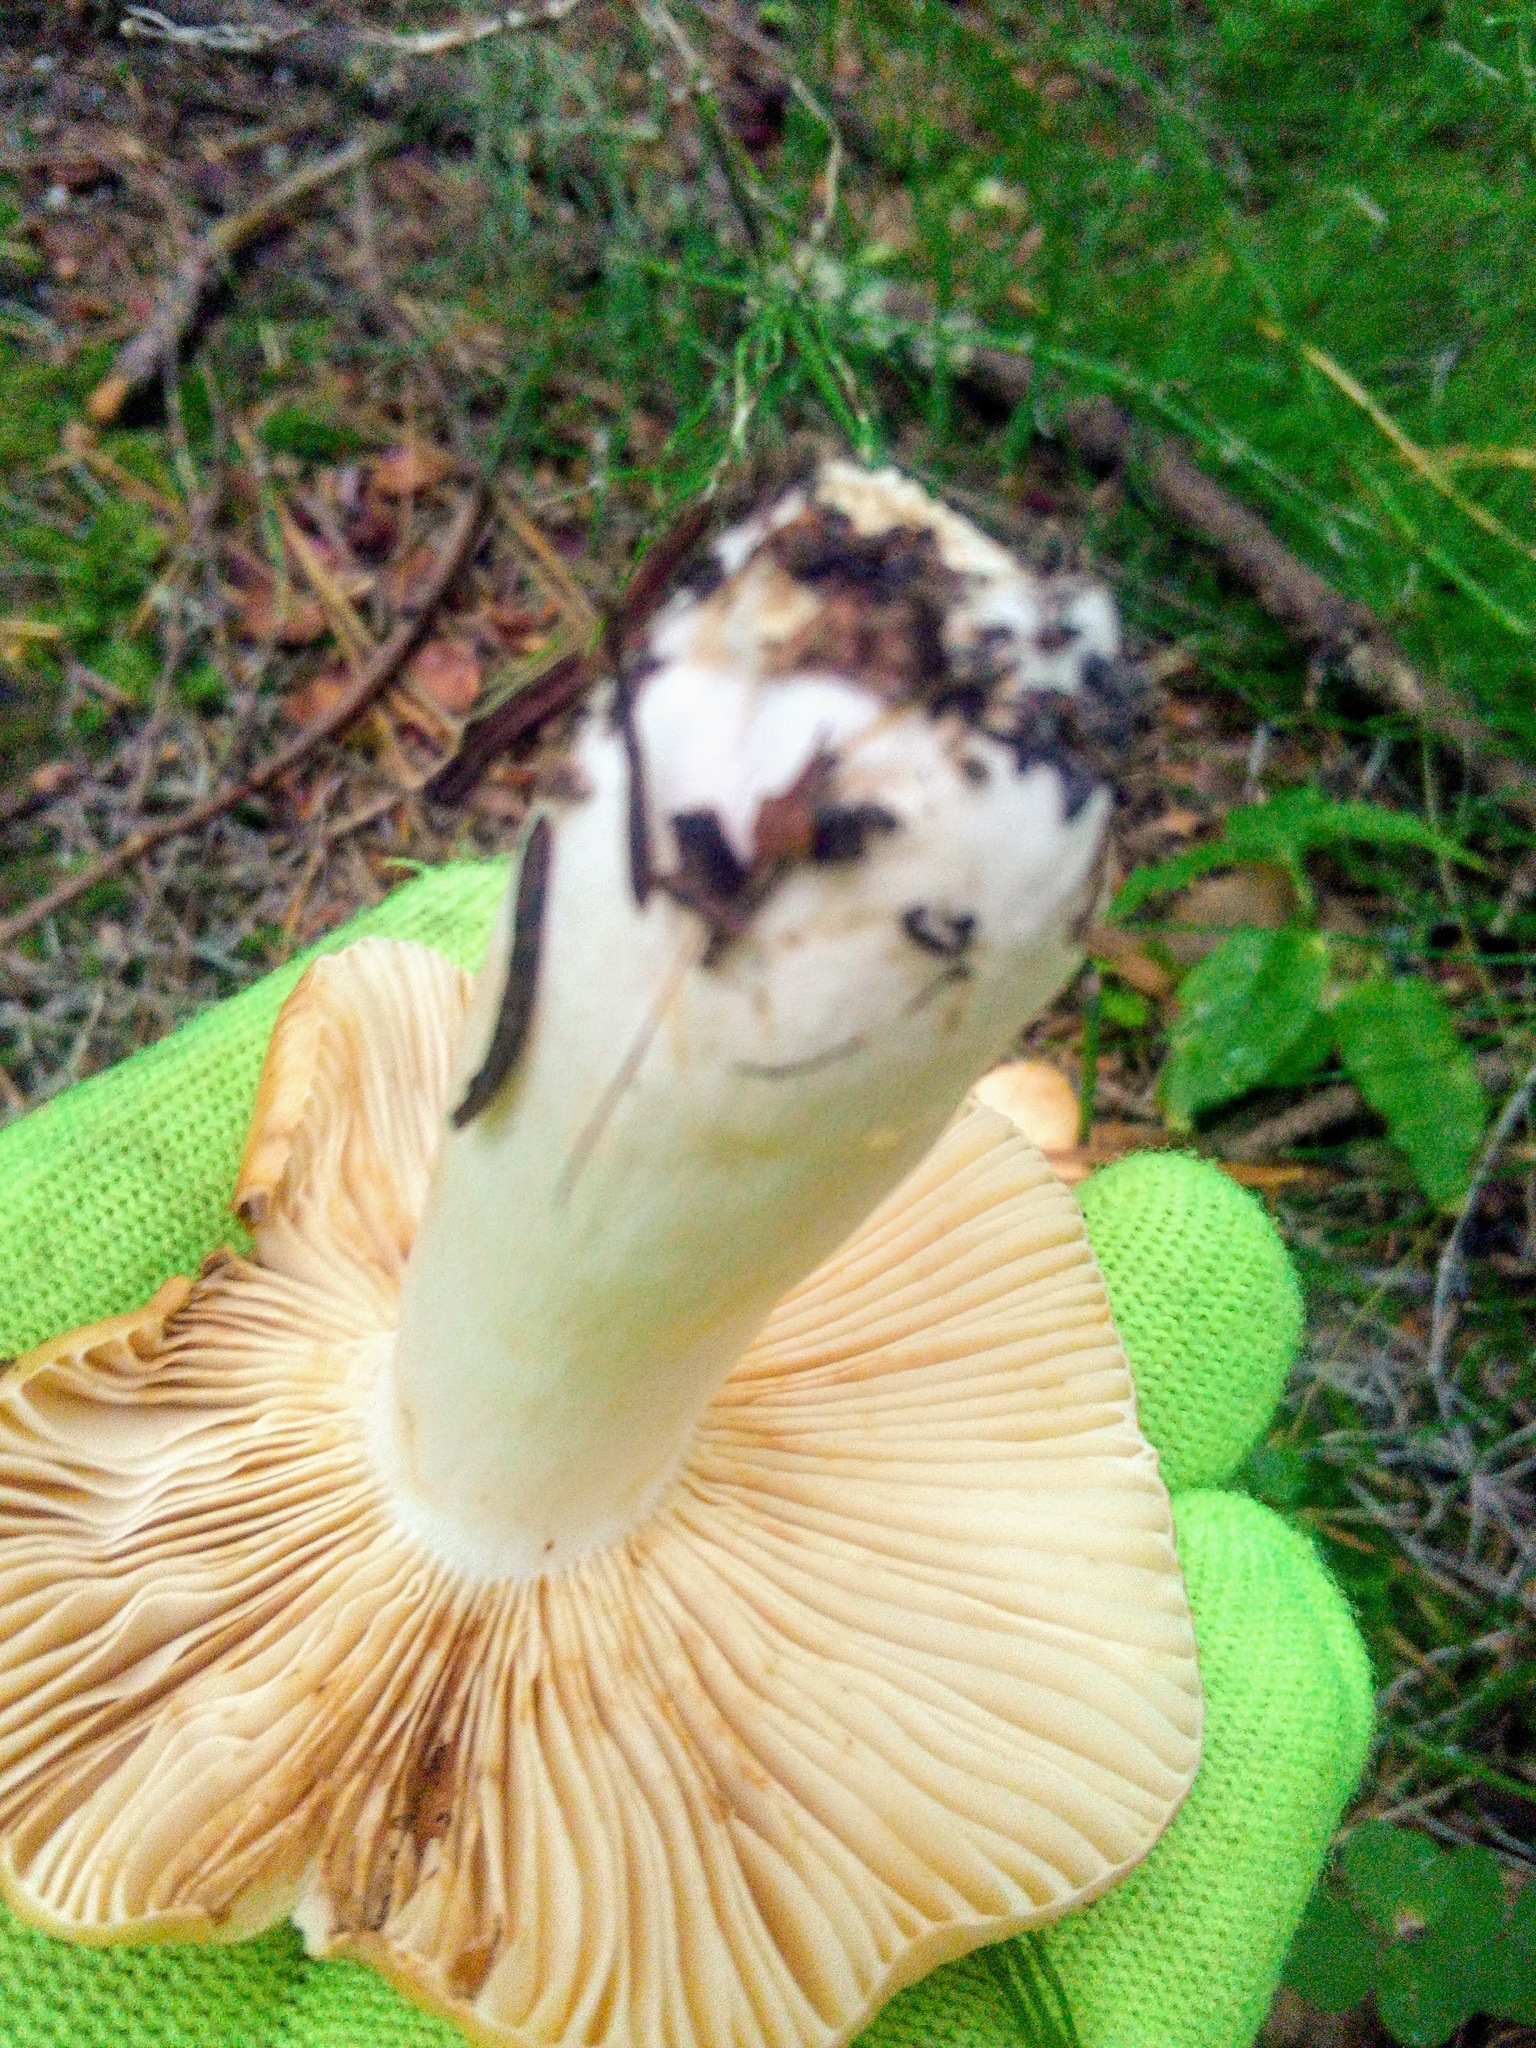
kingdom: Fungi
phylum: Basidiomycota
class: Agaricomycetes
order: Russulales
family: Russulaceae
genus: Russula
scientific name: Russula foetens
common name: Foetid russula
